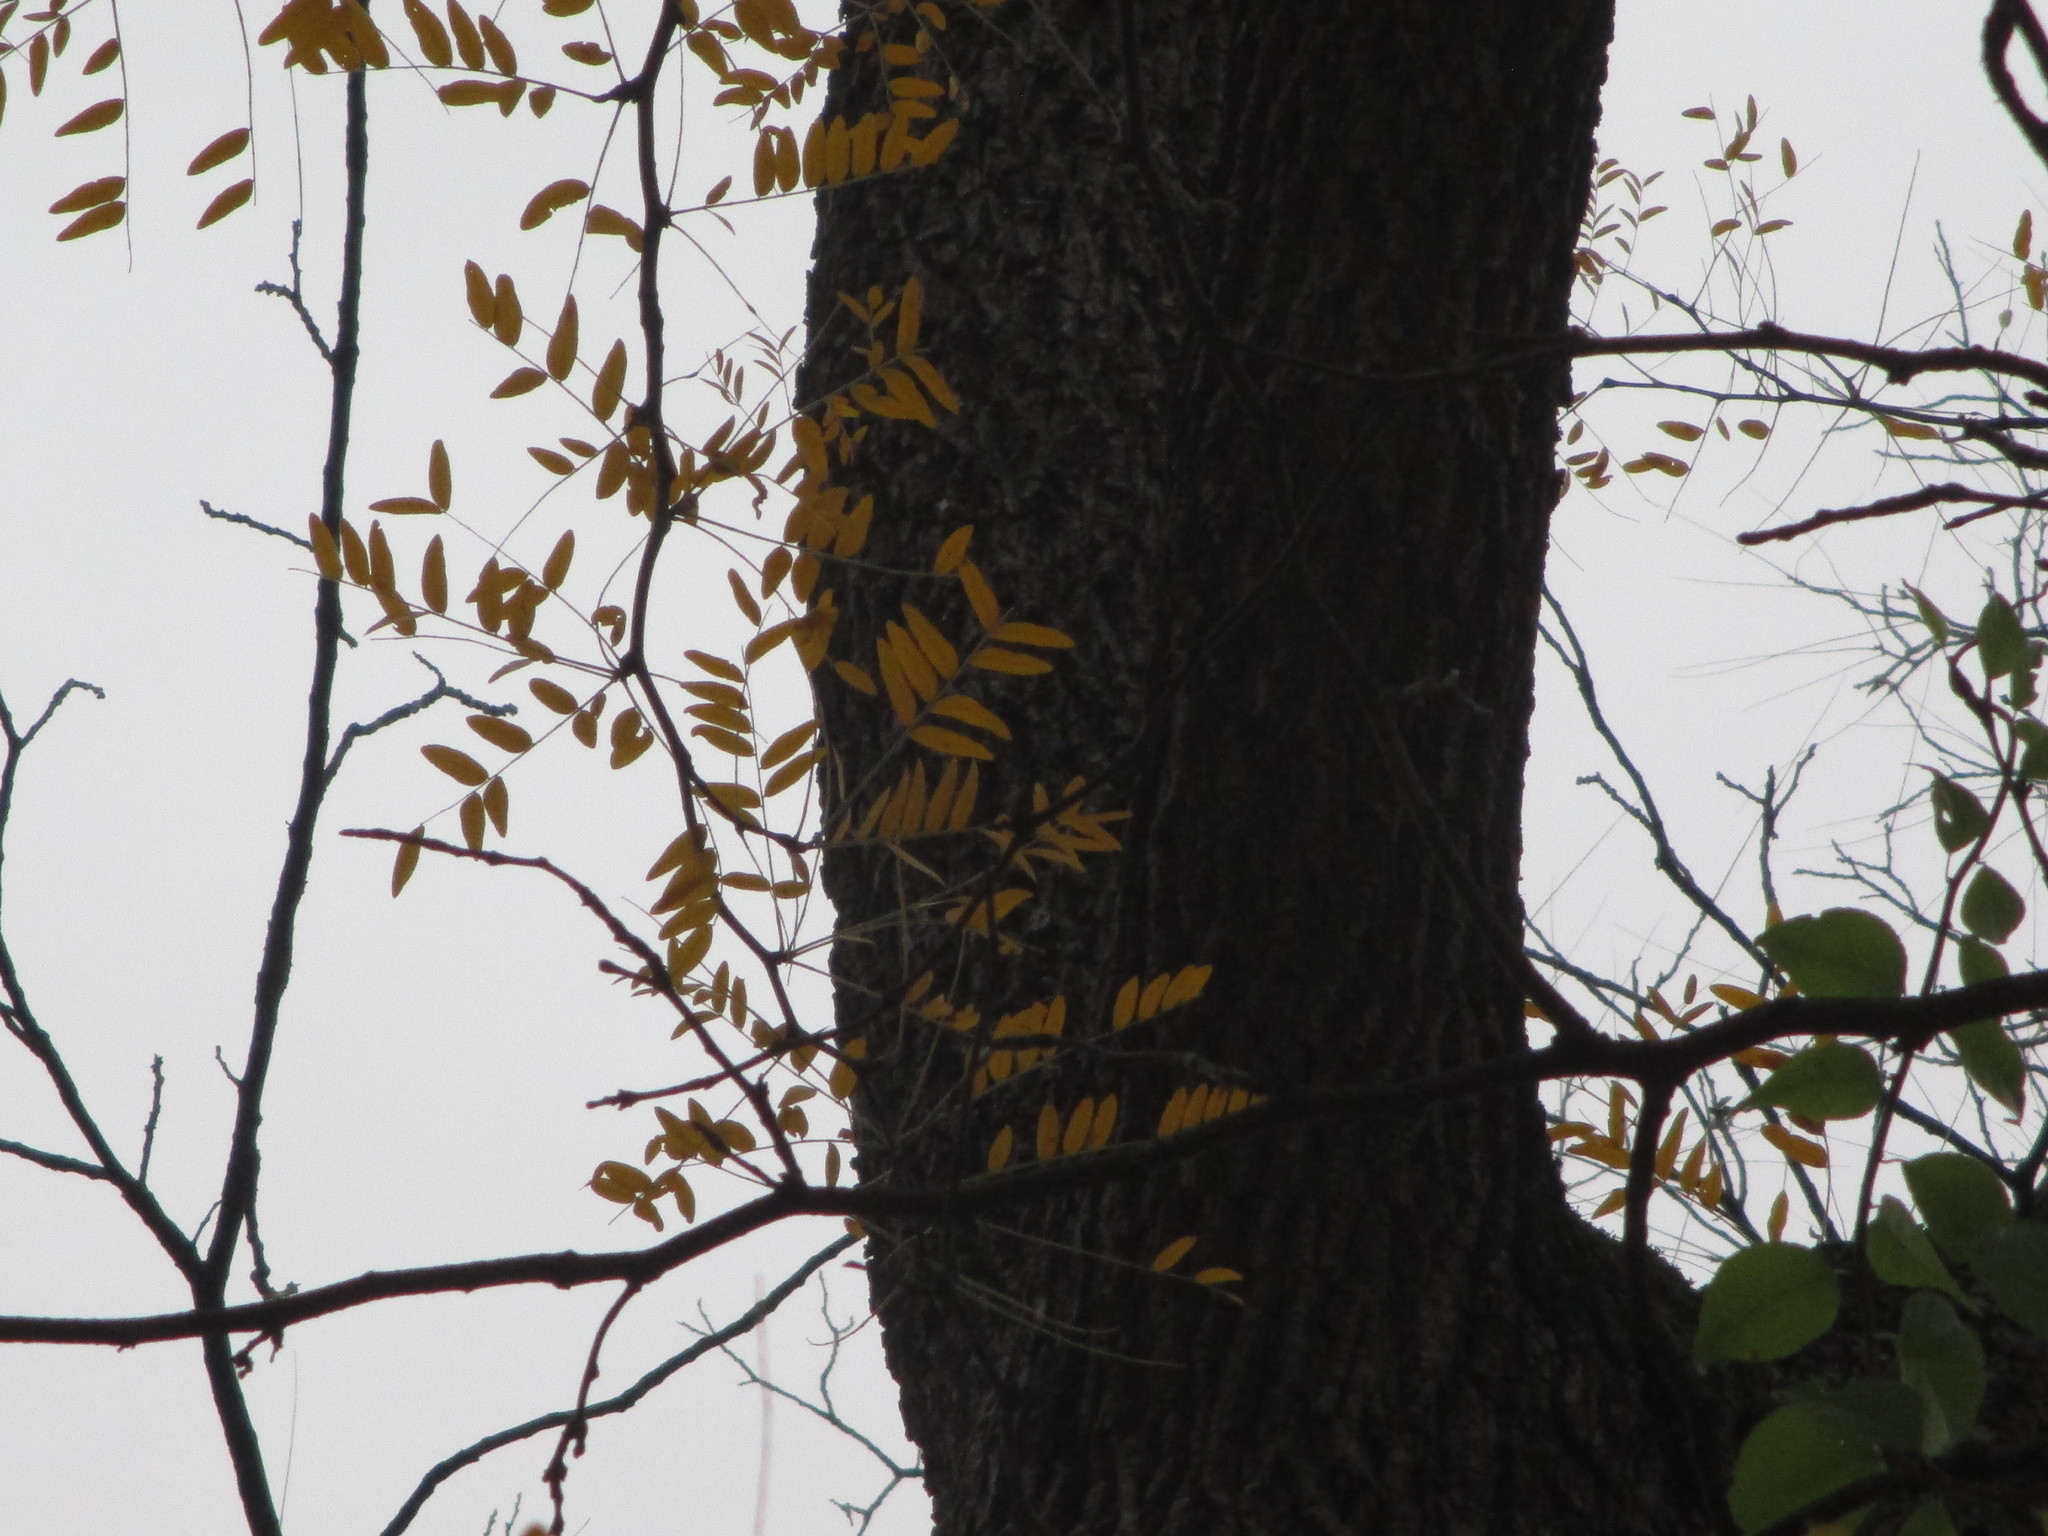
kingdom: Plantae
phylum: Tracheophyta
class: Magnoliopsida
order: Fabales
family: Fabaceae
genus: Gleditsia
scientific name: Gleditsia triacanthos
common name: Common honeylocust
